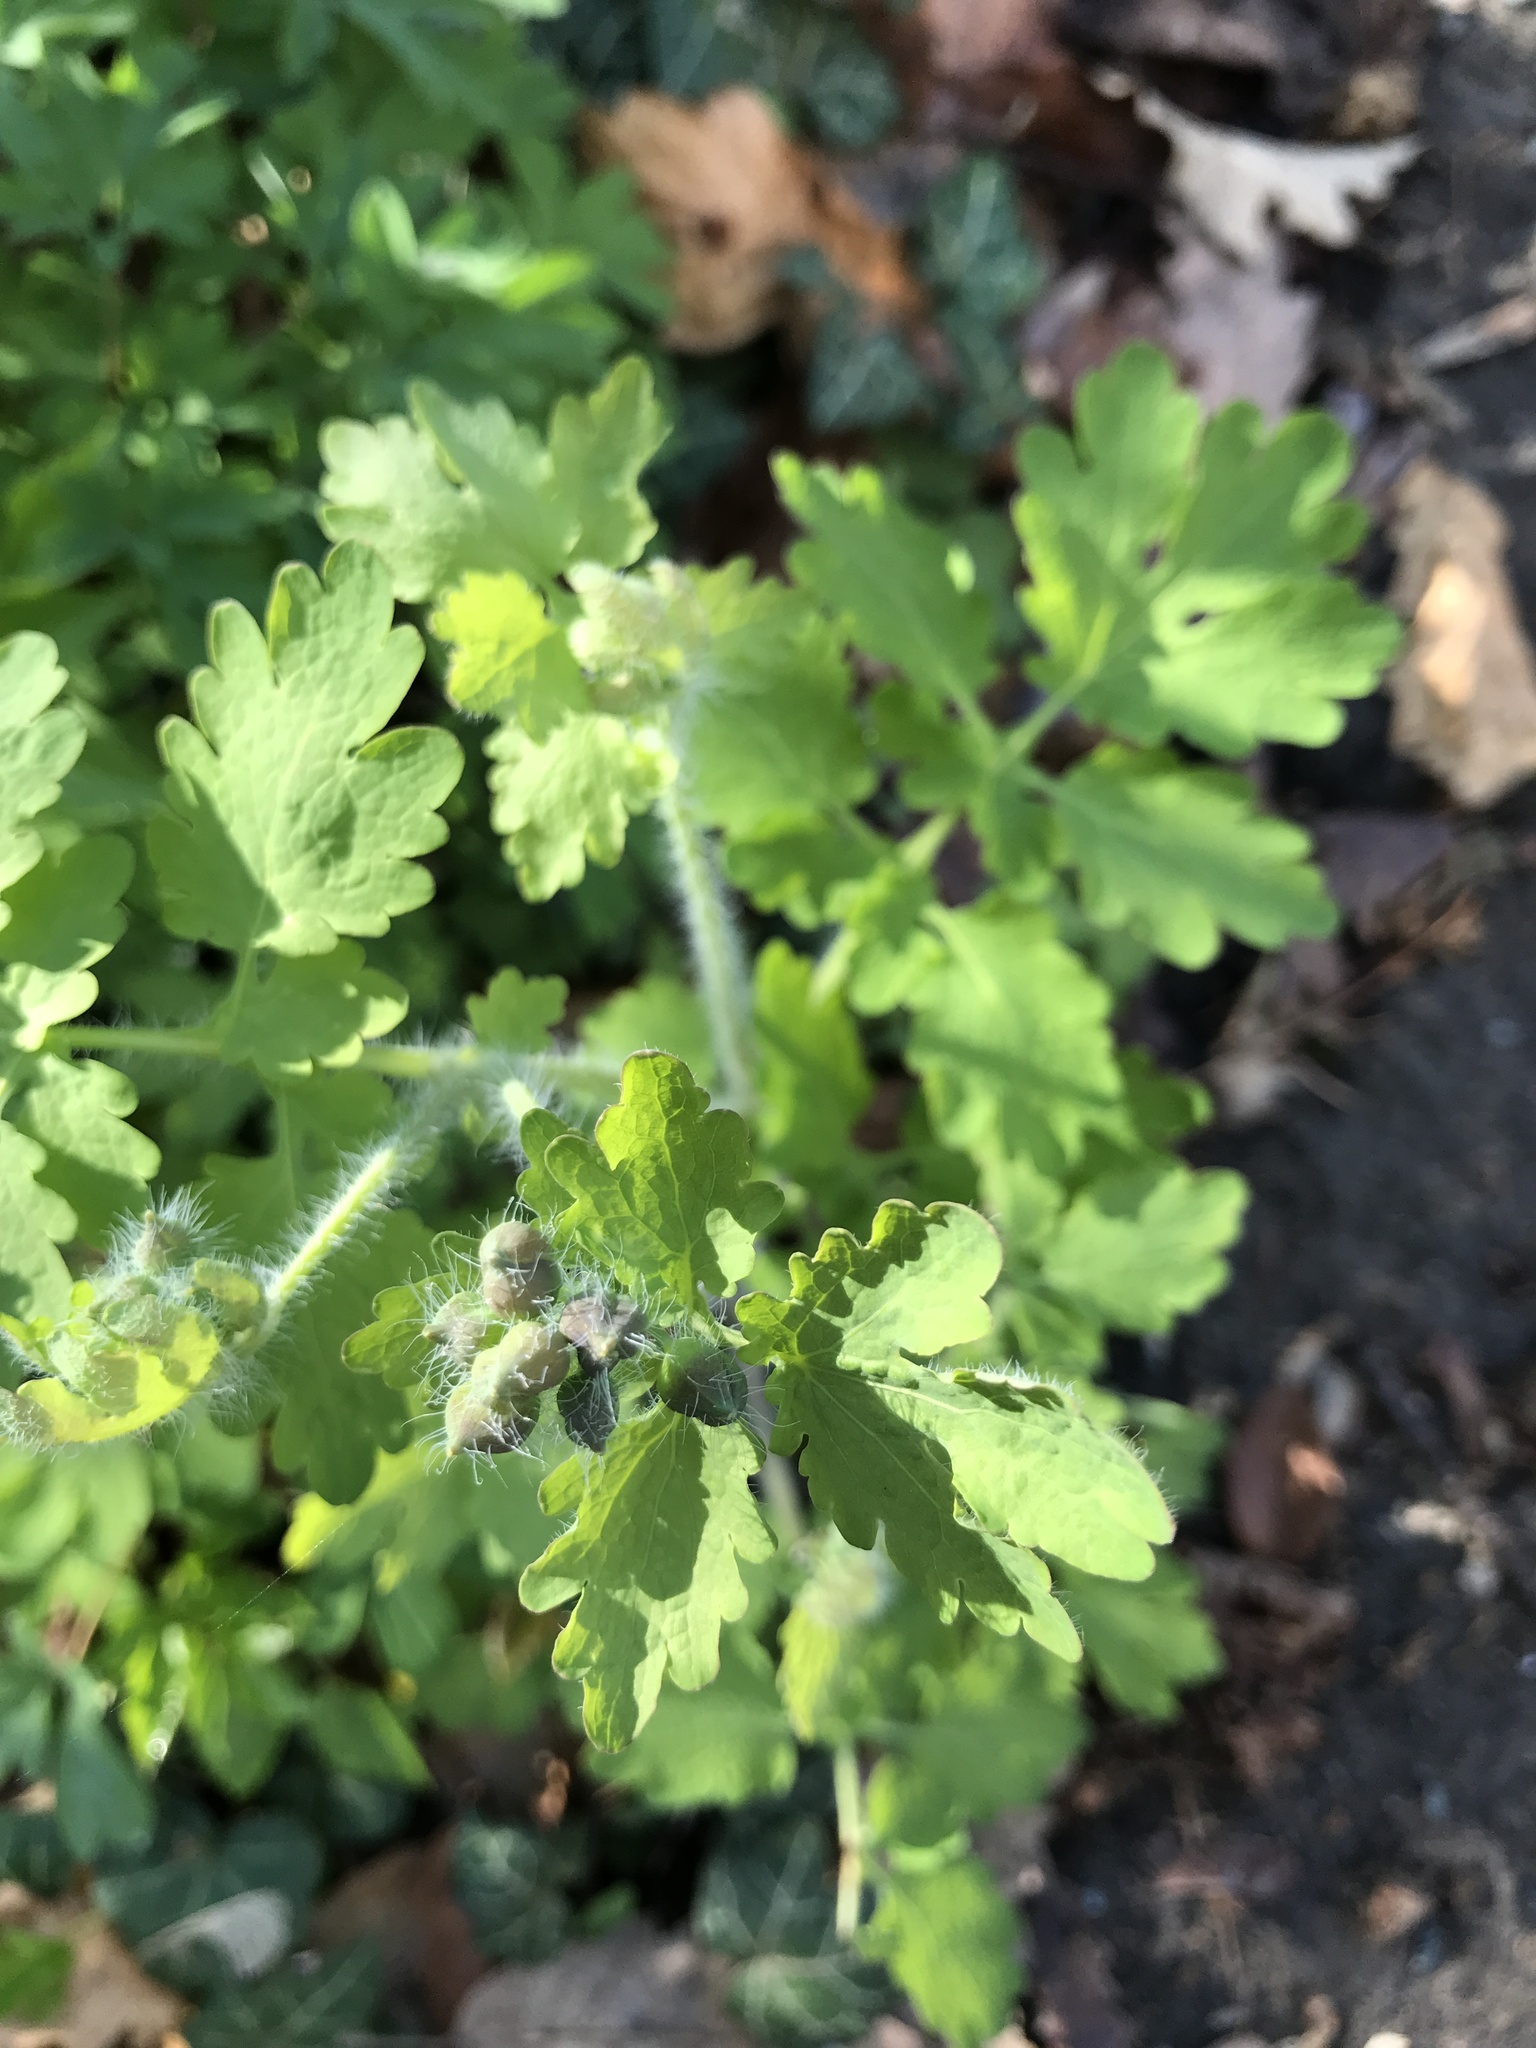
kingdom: Plantae
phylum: Tracheophyta
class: Magnoliopsida
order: Ranunculales
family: Papaveraceae
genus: Chelidonium
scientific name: Chelidonium majus
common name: Greater celandine
